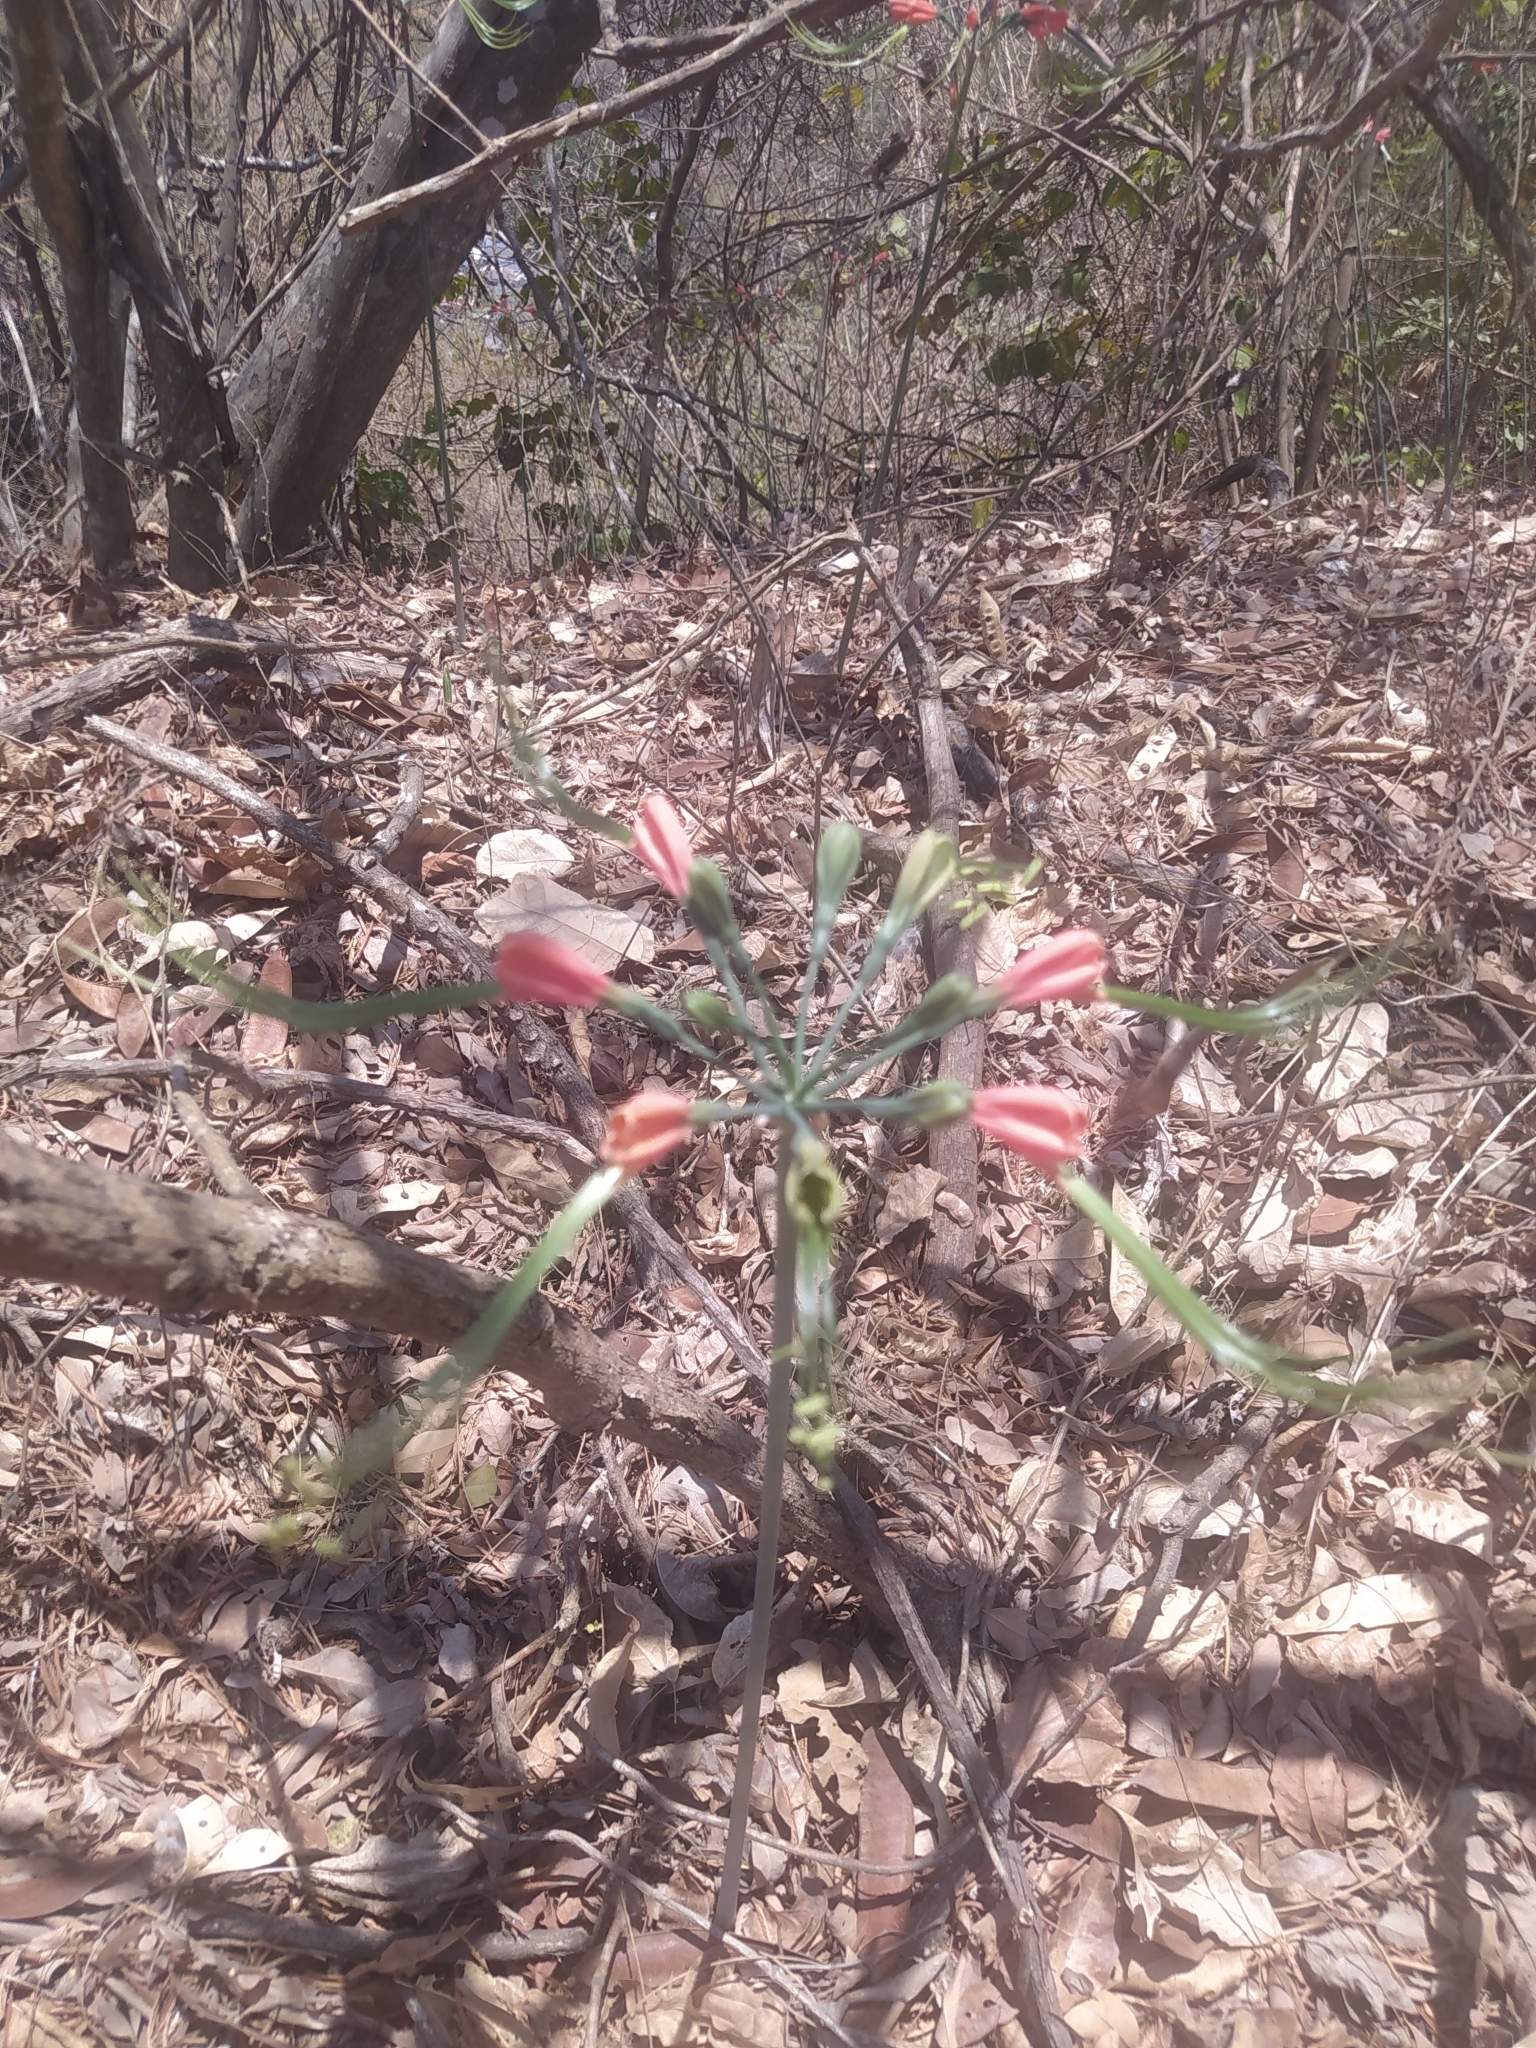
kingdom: Plantae
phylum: Tracheophyta
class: Liliopsida
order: Asparagales
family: Amaryllidaceae
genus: Eucrosia
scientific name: Eucrosia eucrosioides
